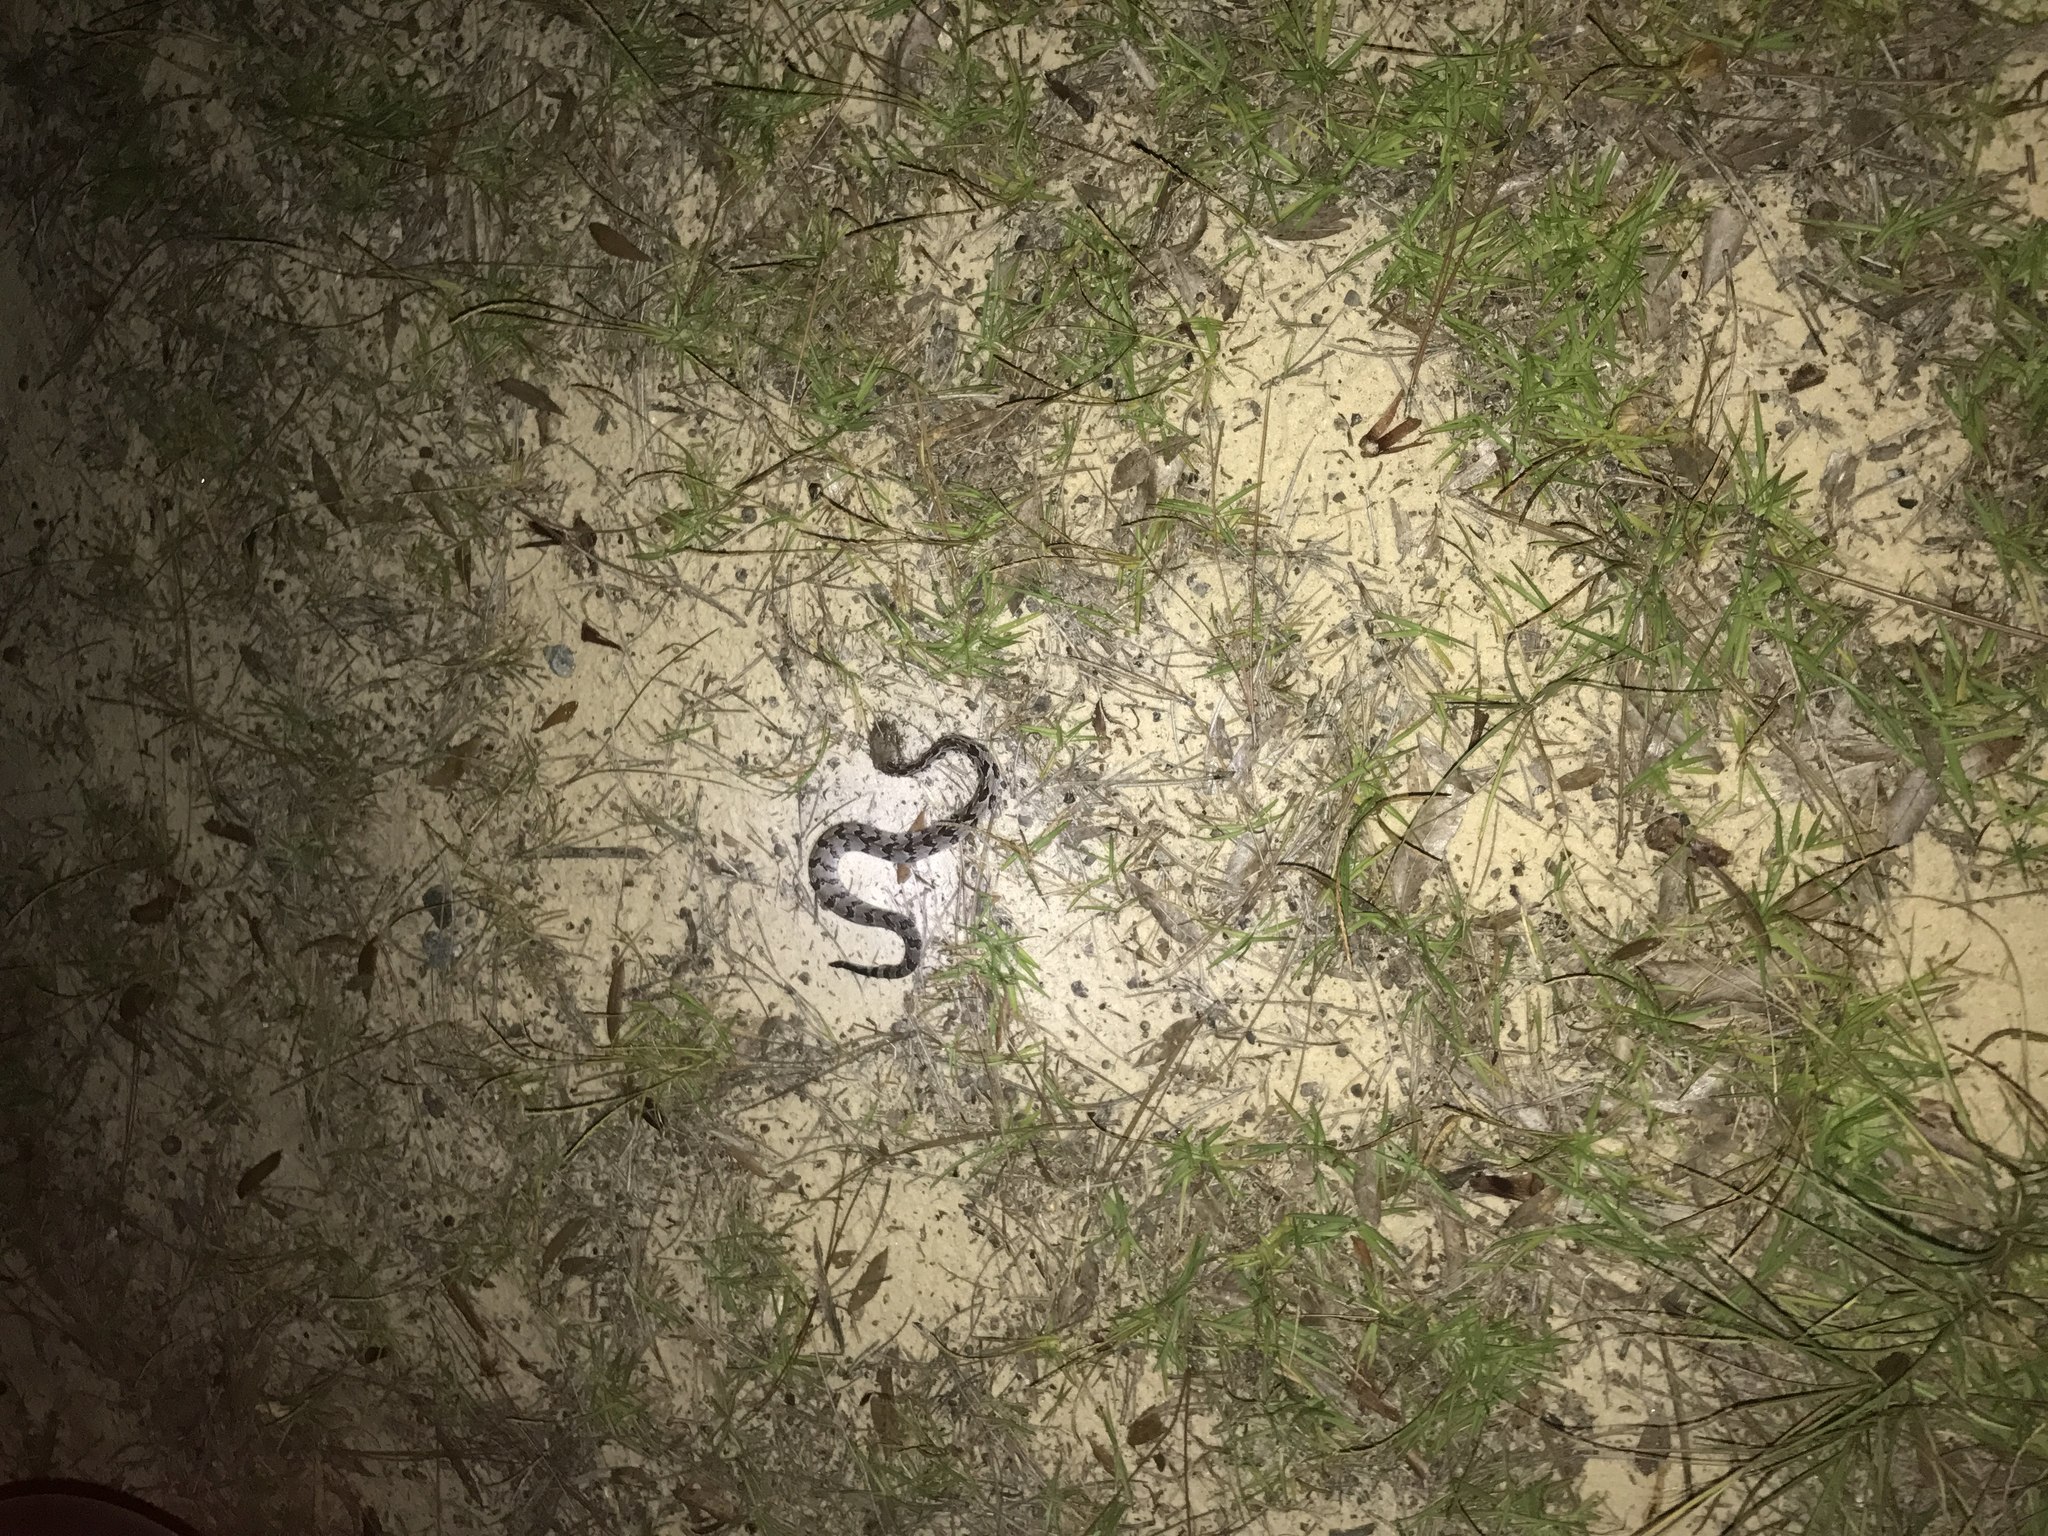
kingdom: Animalia
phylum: Chordata
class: Squamata
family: Viperidae
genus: Crotalus
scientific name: Crotalus horridus
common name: Timber rattlesnake
